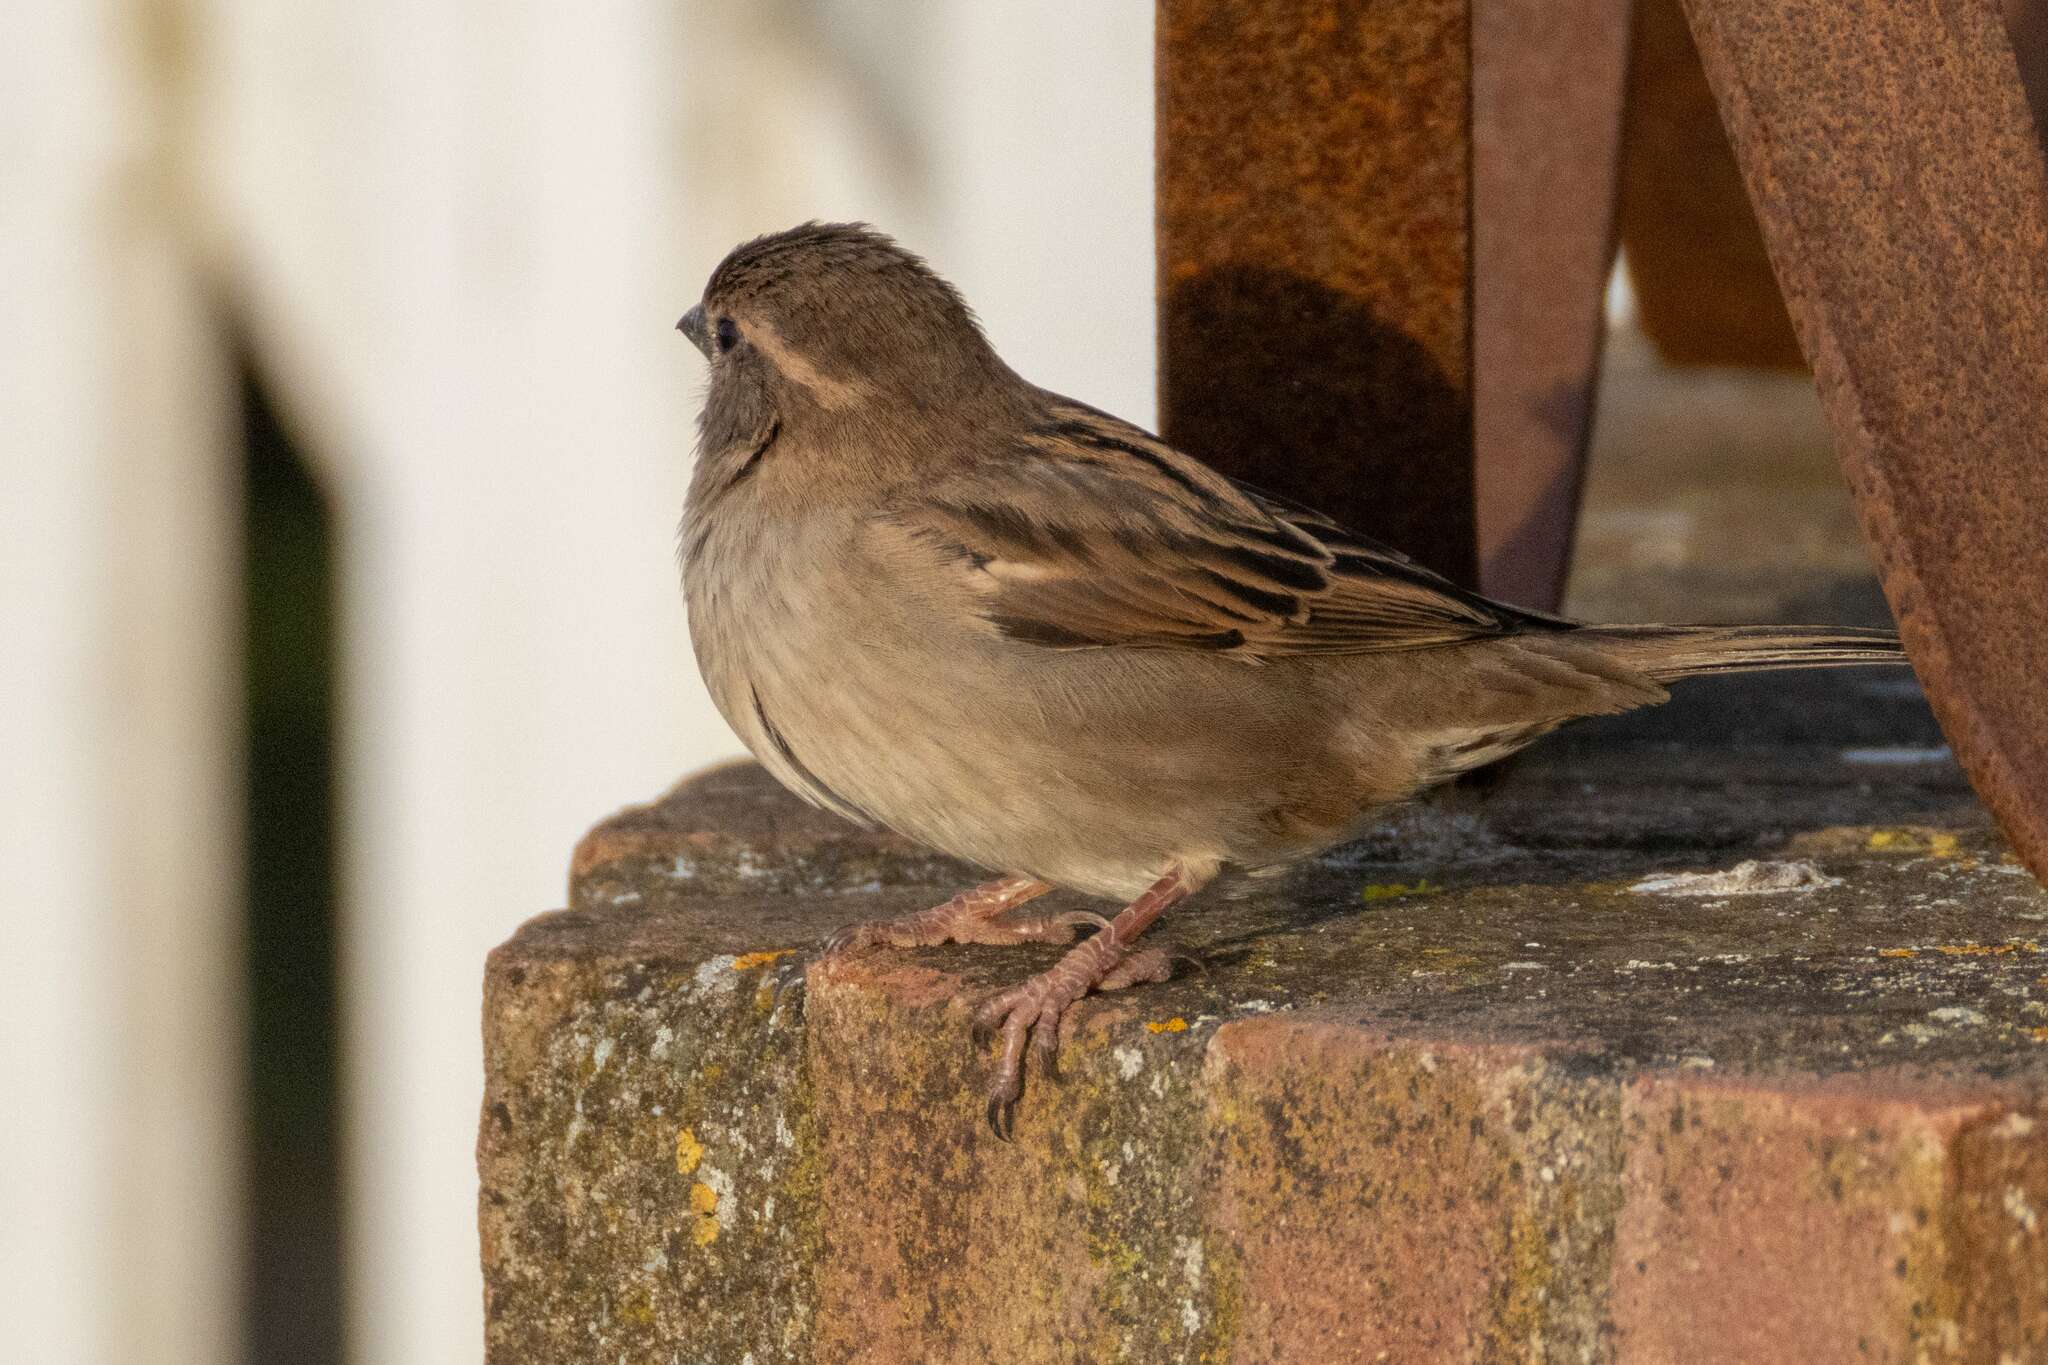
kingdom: Animalia
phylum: Chordata
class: Aves
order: Passeriformes
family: Passeridae
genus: Passer
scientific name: Passer domesticus
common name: House sparrow
